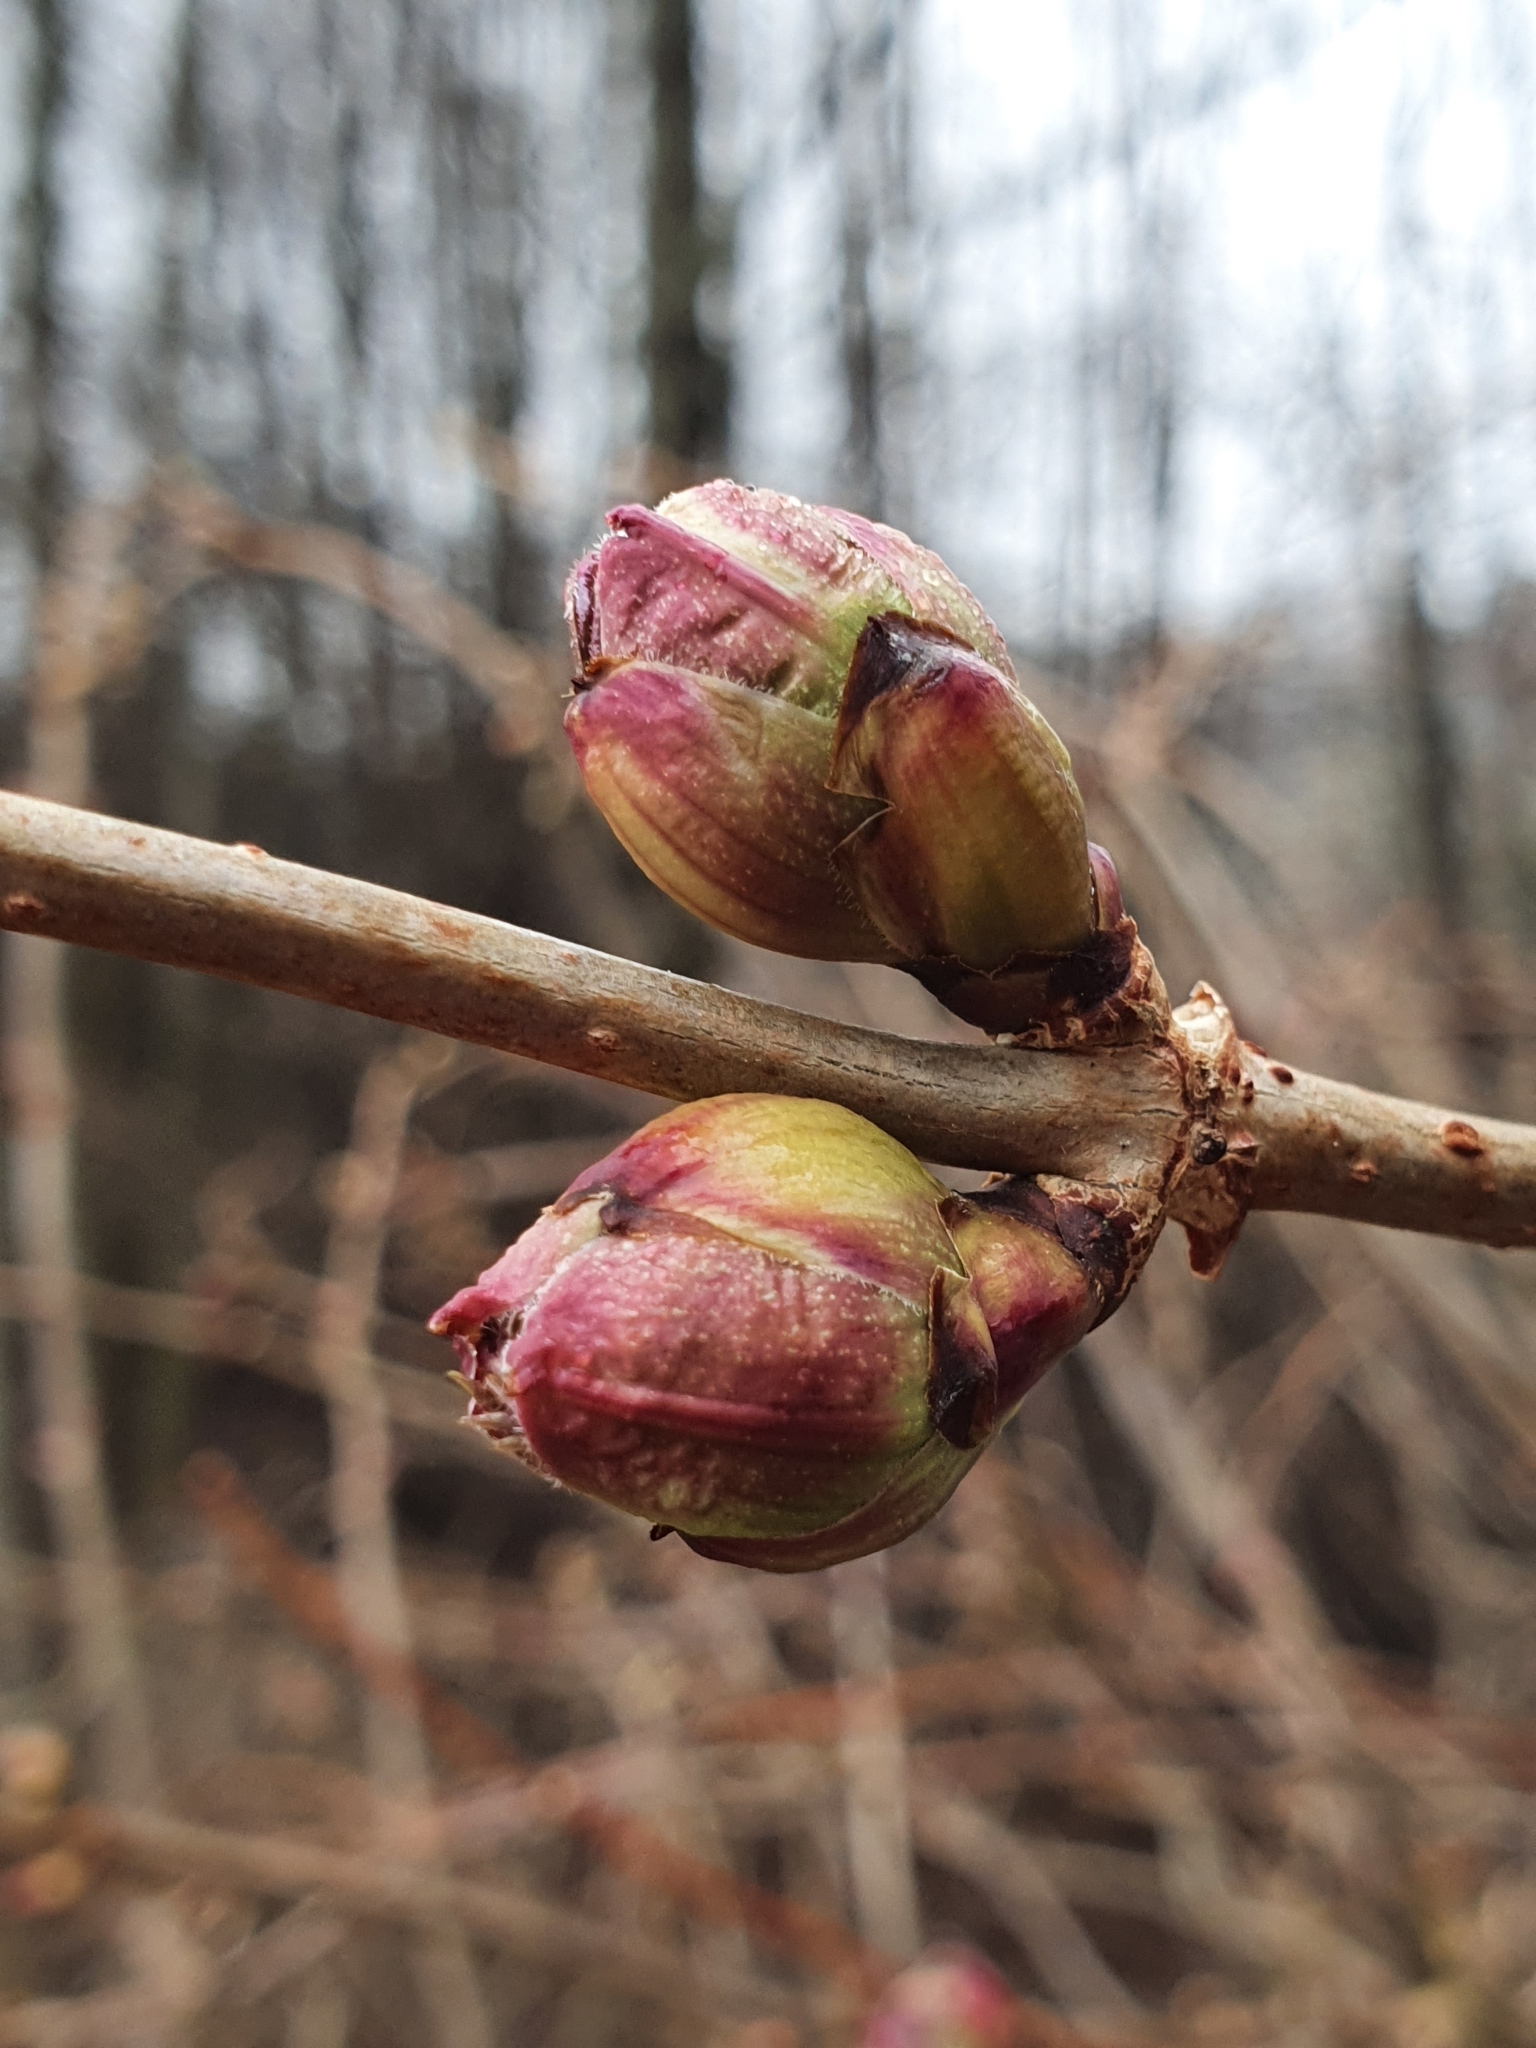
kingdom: Plantae
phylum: Tracheophyta
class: Magnoliopsida
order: Dipsacales
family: Viburnaceae
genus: Sambucus
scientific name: Sambucus racemosa
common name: Red-berried elder
